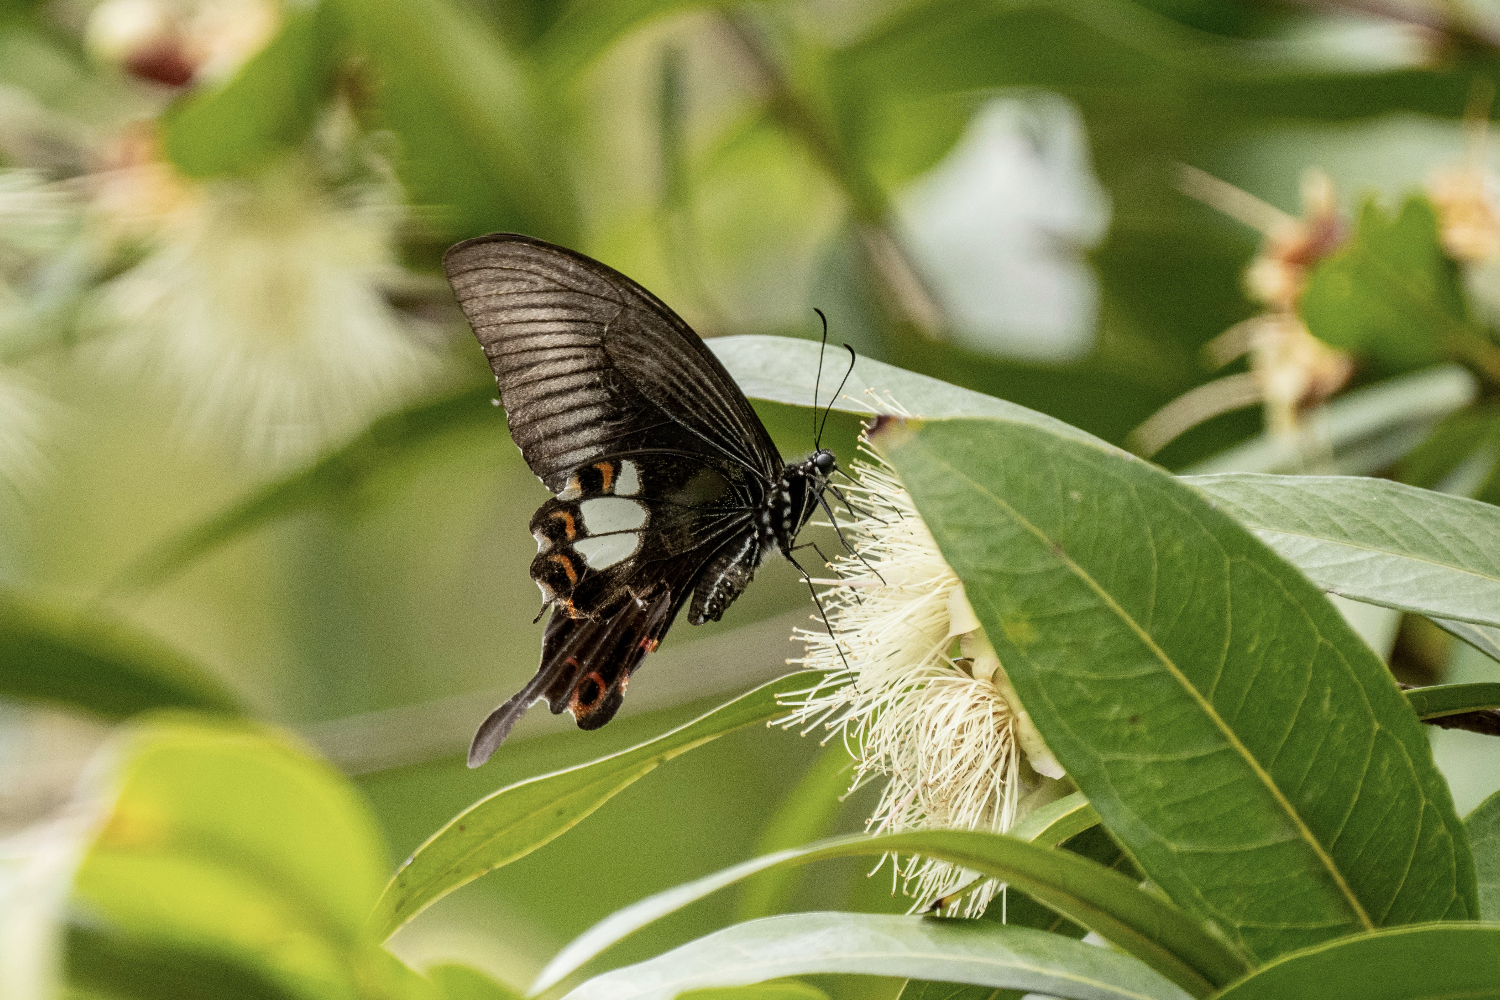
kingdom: Animalia
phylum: Arthropoda
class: Insecta
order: Lepidoptera
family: Papilionidae
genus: Papilio
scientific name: Papilio helenus
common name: Red helen
